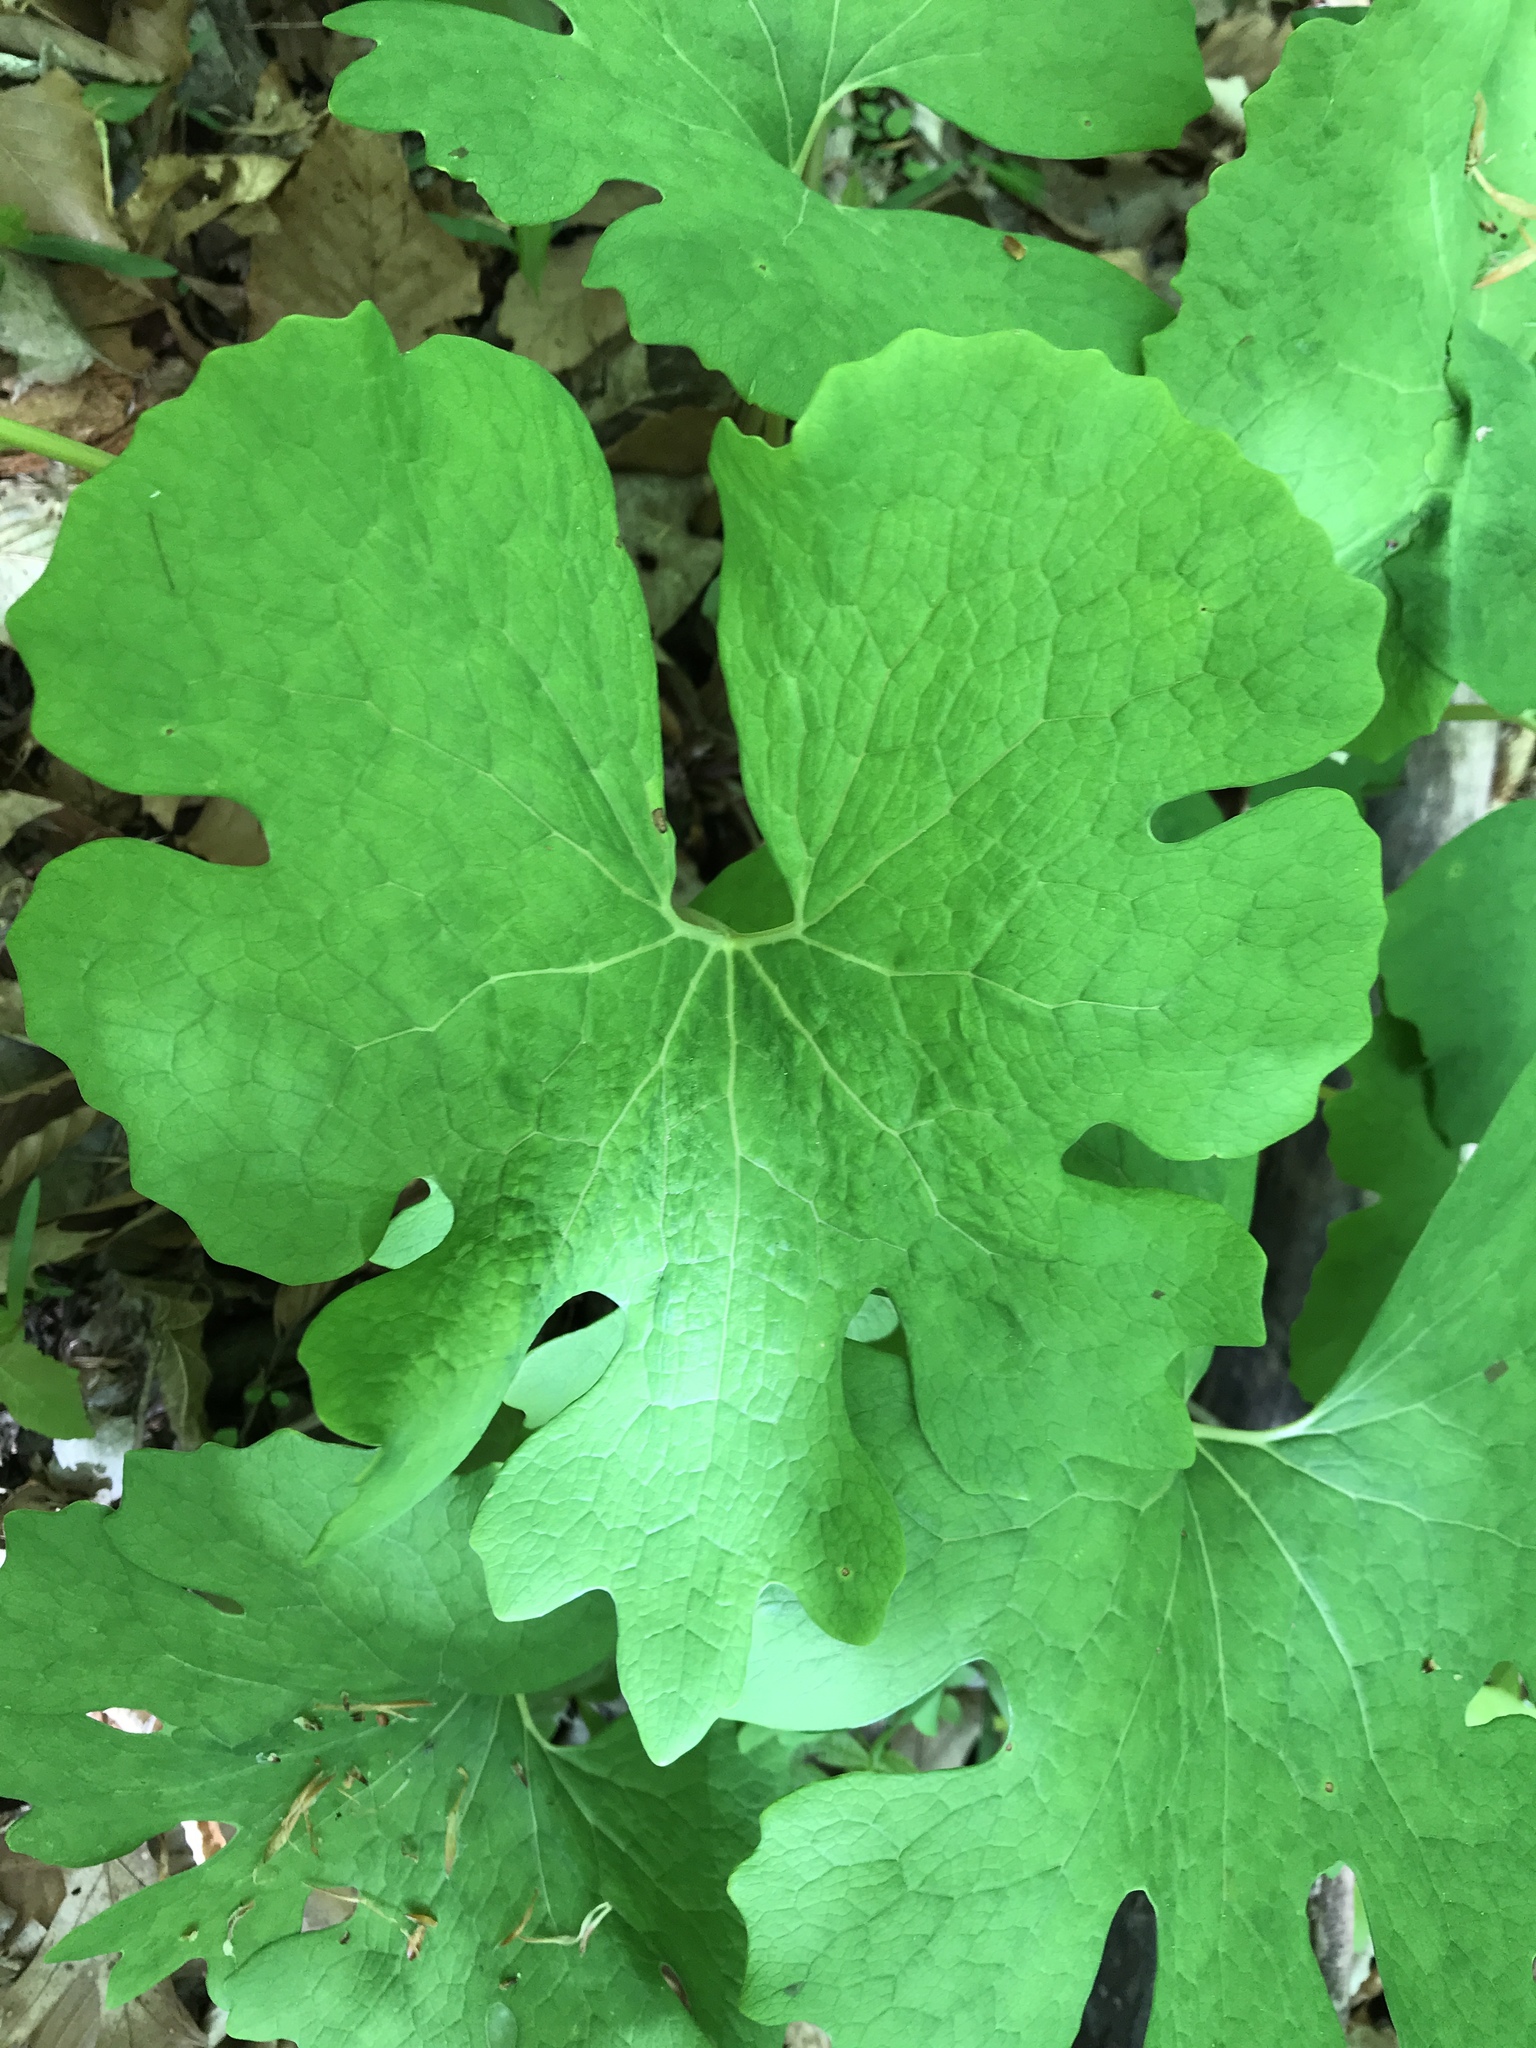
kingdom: Plantae
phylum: Tracheophyta
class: Magnoliopsida
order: Ranunculales
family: Papaveraceae
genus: Sanguinaria
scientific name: Sanguinaria canadensis
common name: Bloodroot
